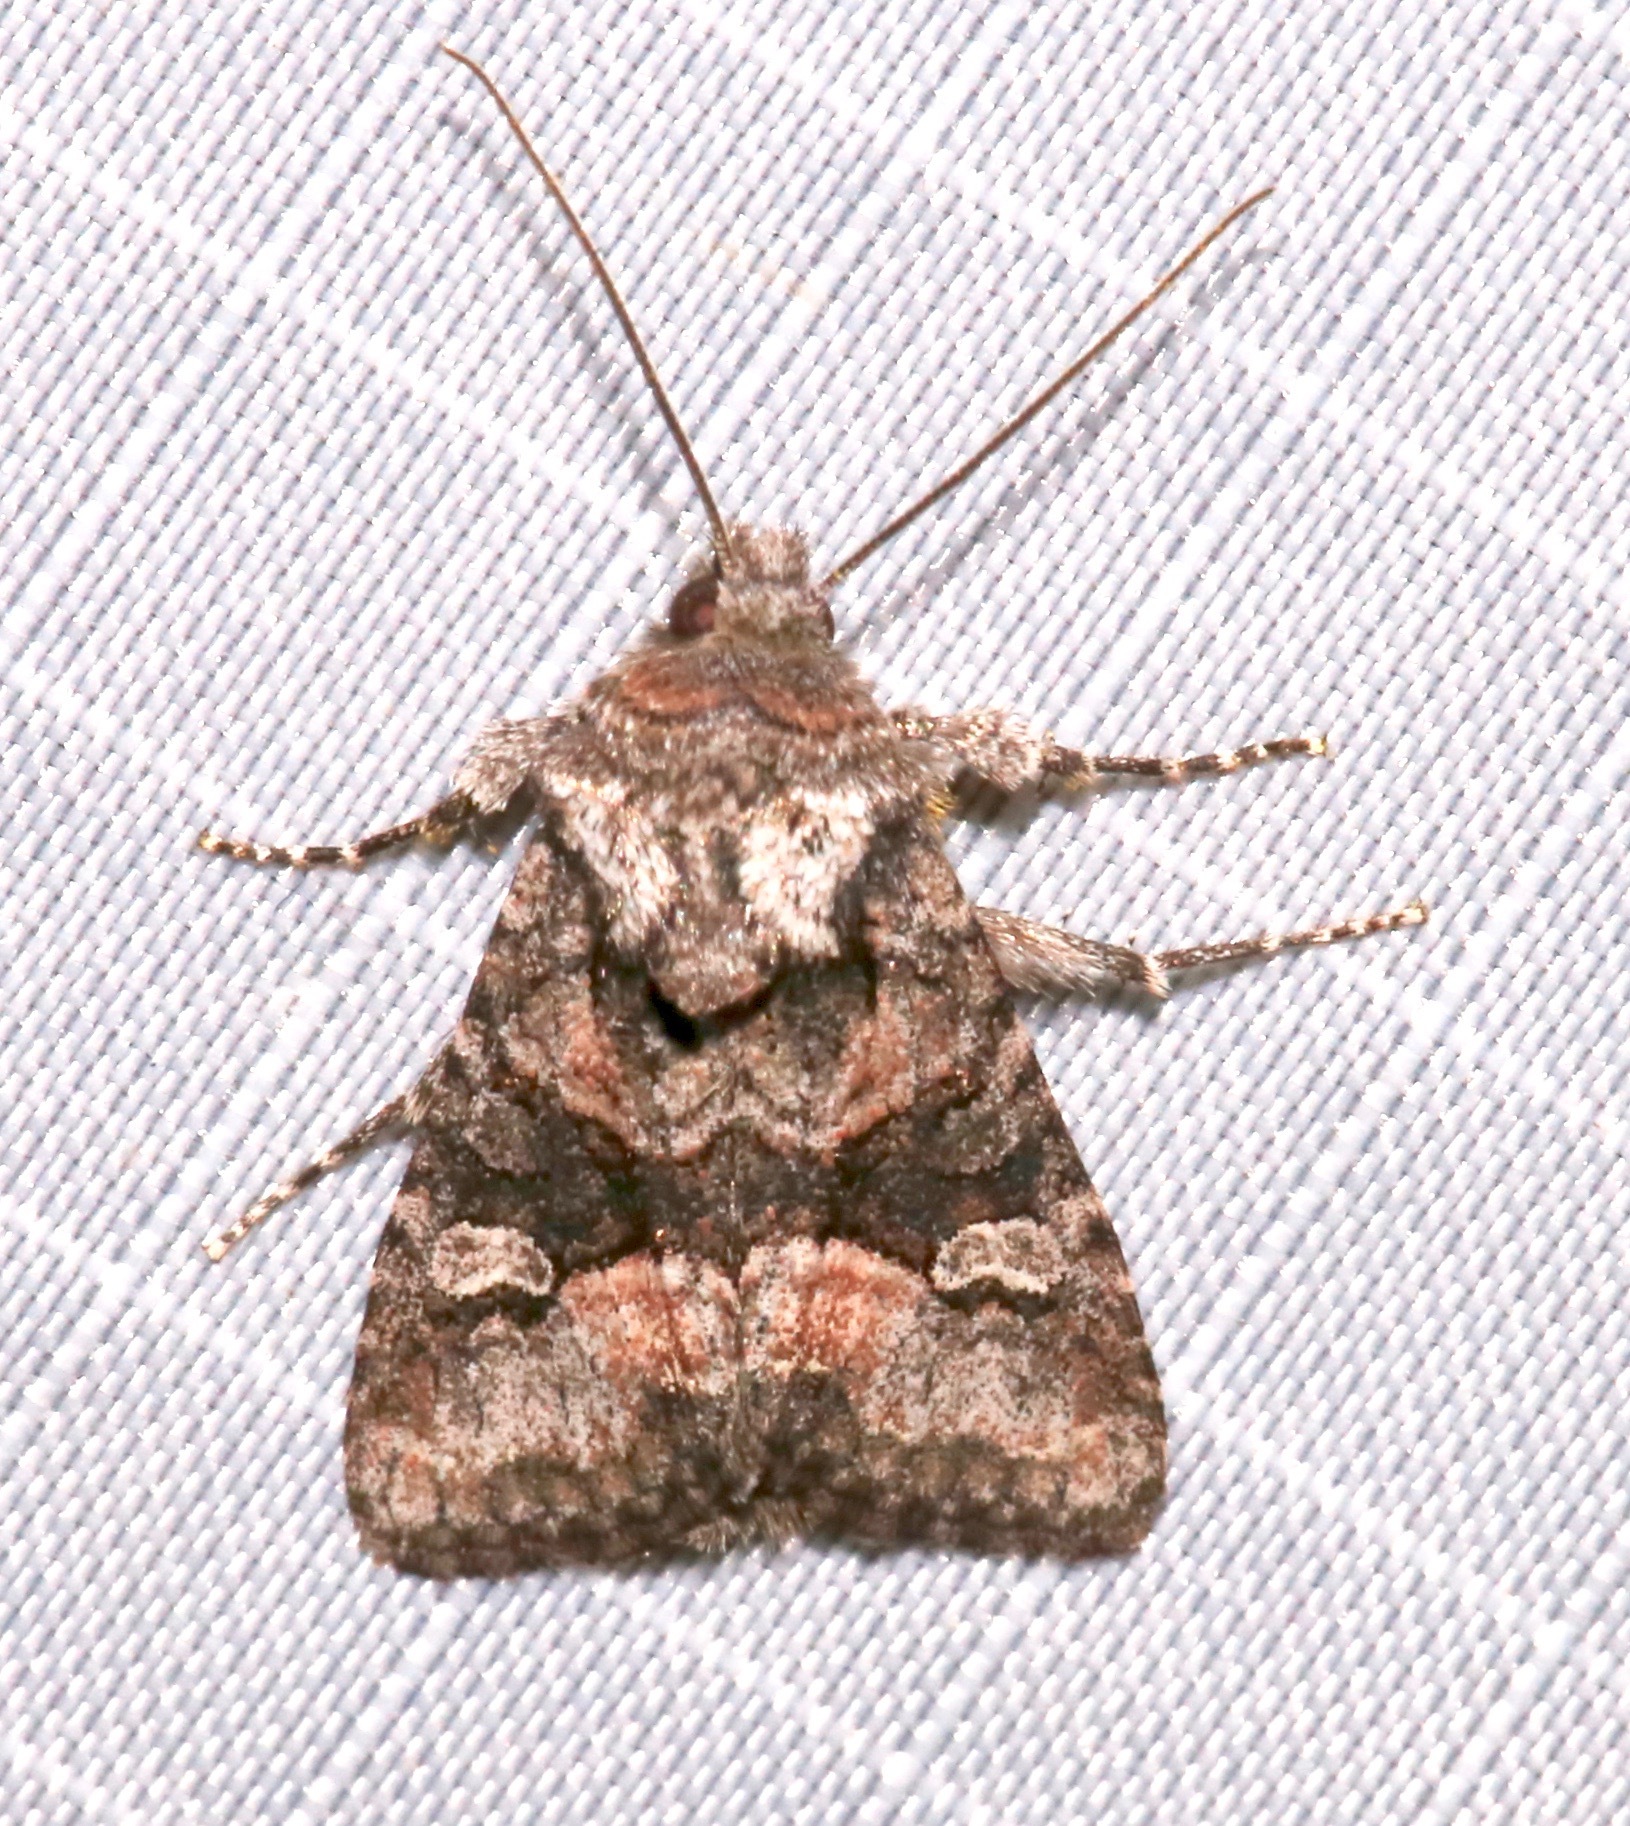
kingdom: Animalia
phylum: Arthropoda
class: Insecta
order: Lepidoptera
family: Noctuidae
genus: Lacinipolia
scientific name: Lacinipolia olivacea
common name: Olive arches moth
